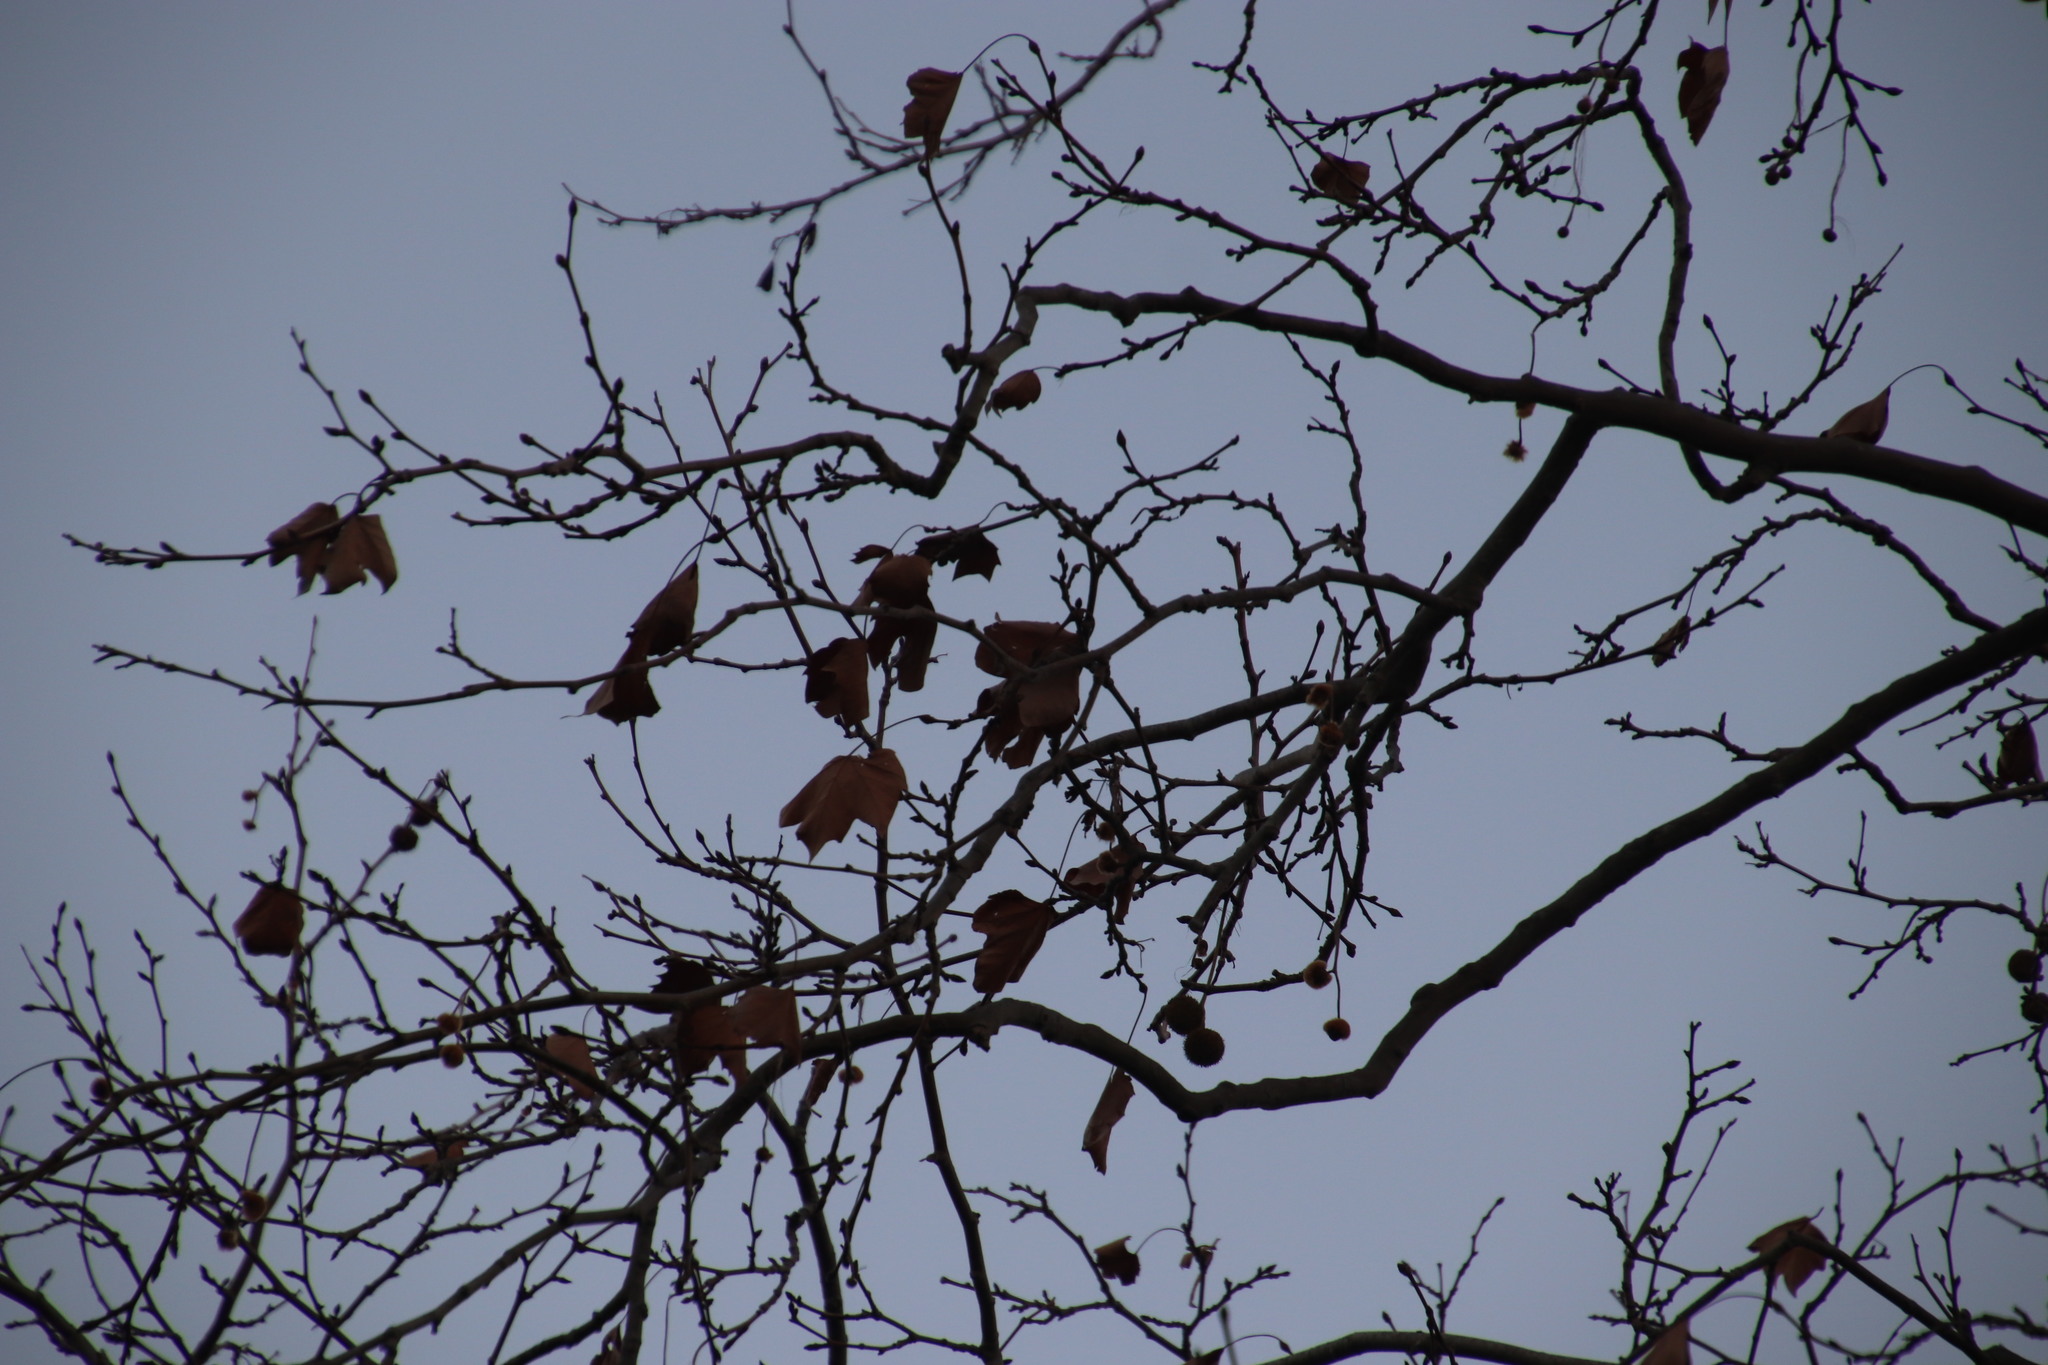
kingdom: Plantae
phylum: Tracheophyta
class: Magnoliopsida
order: Proteales
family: Platanaceae
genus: Platanus
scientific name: Platanus hispanica
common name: London plane
